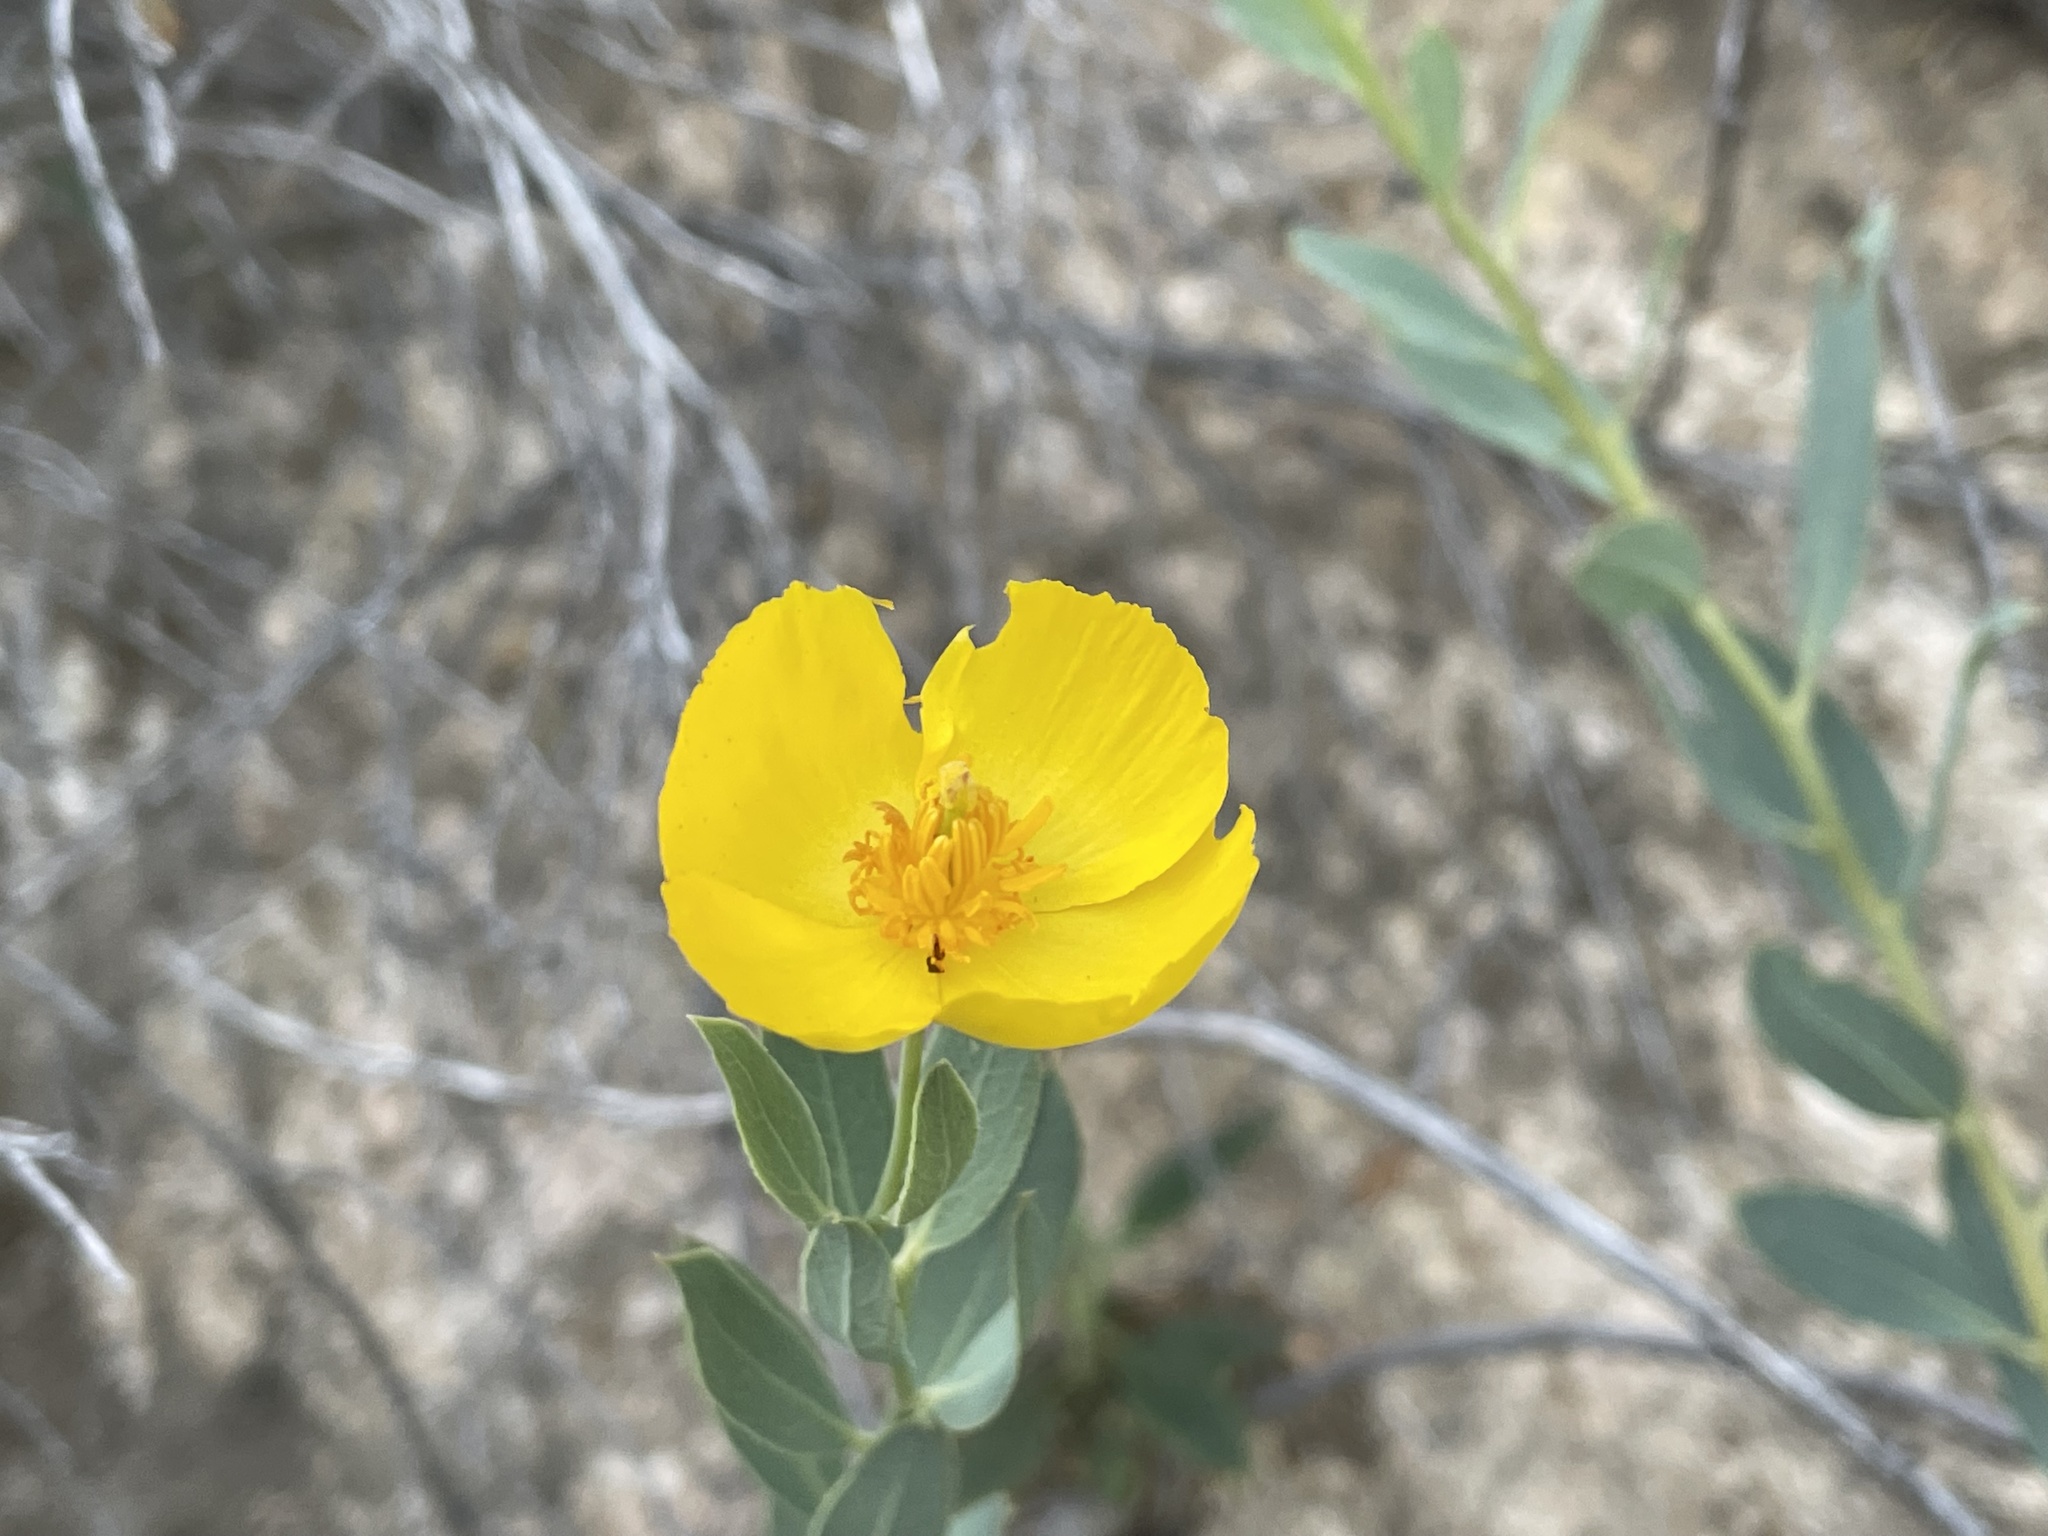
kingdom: Plantae
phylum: Tracheophyta
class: Magnoliopsida
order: Ranunculales
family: Papaveraceae
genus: Dendromecon
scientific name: Dendromecon rigida
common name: Tree poppy
